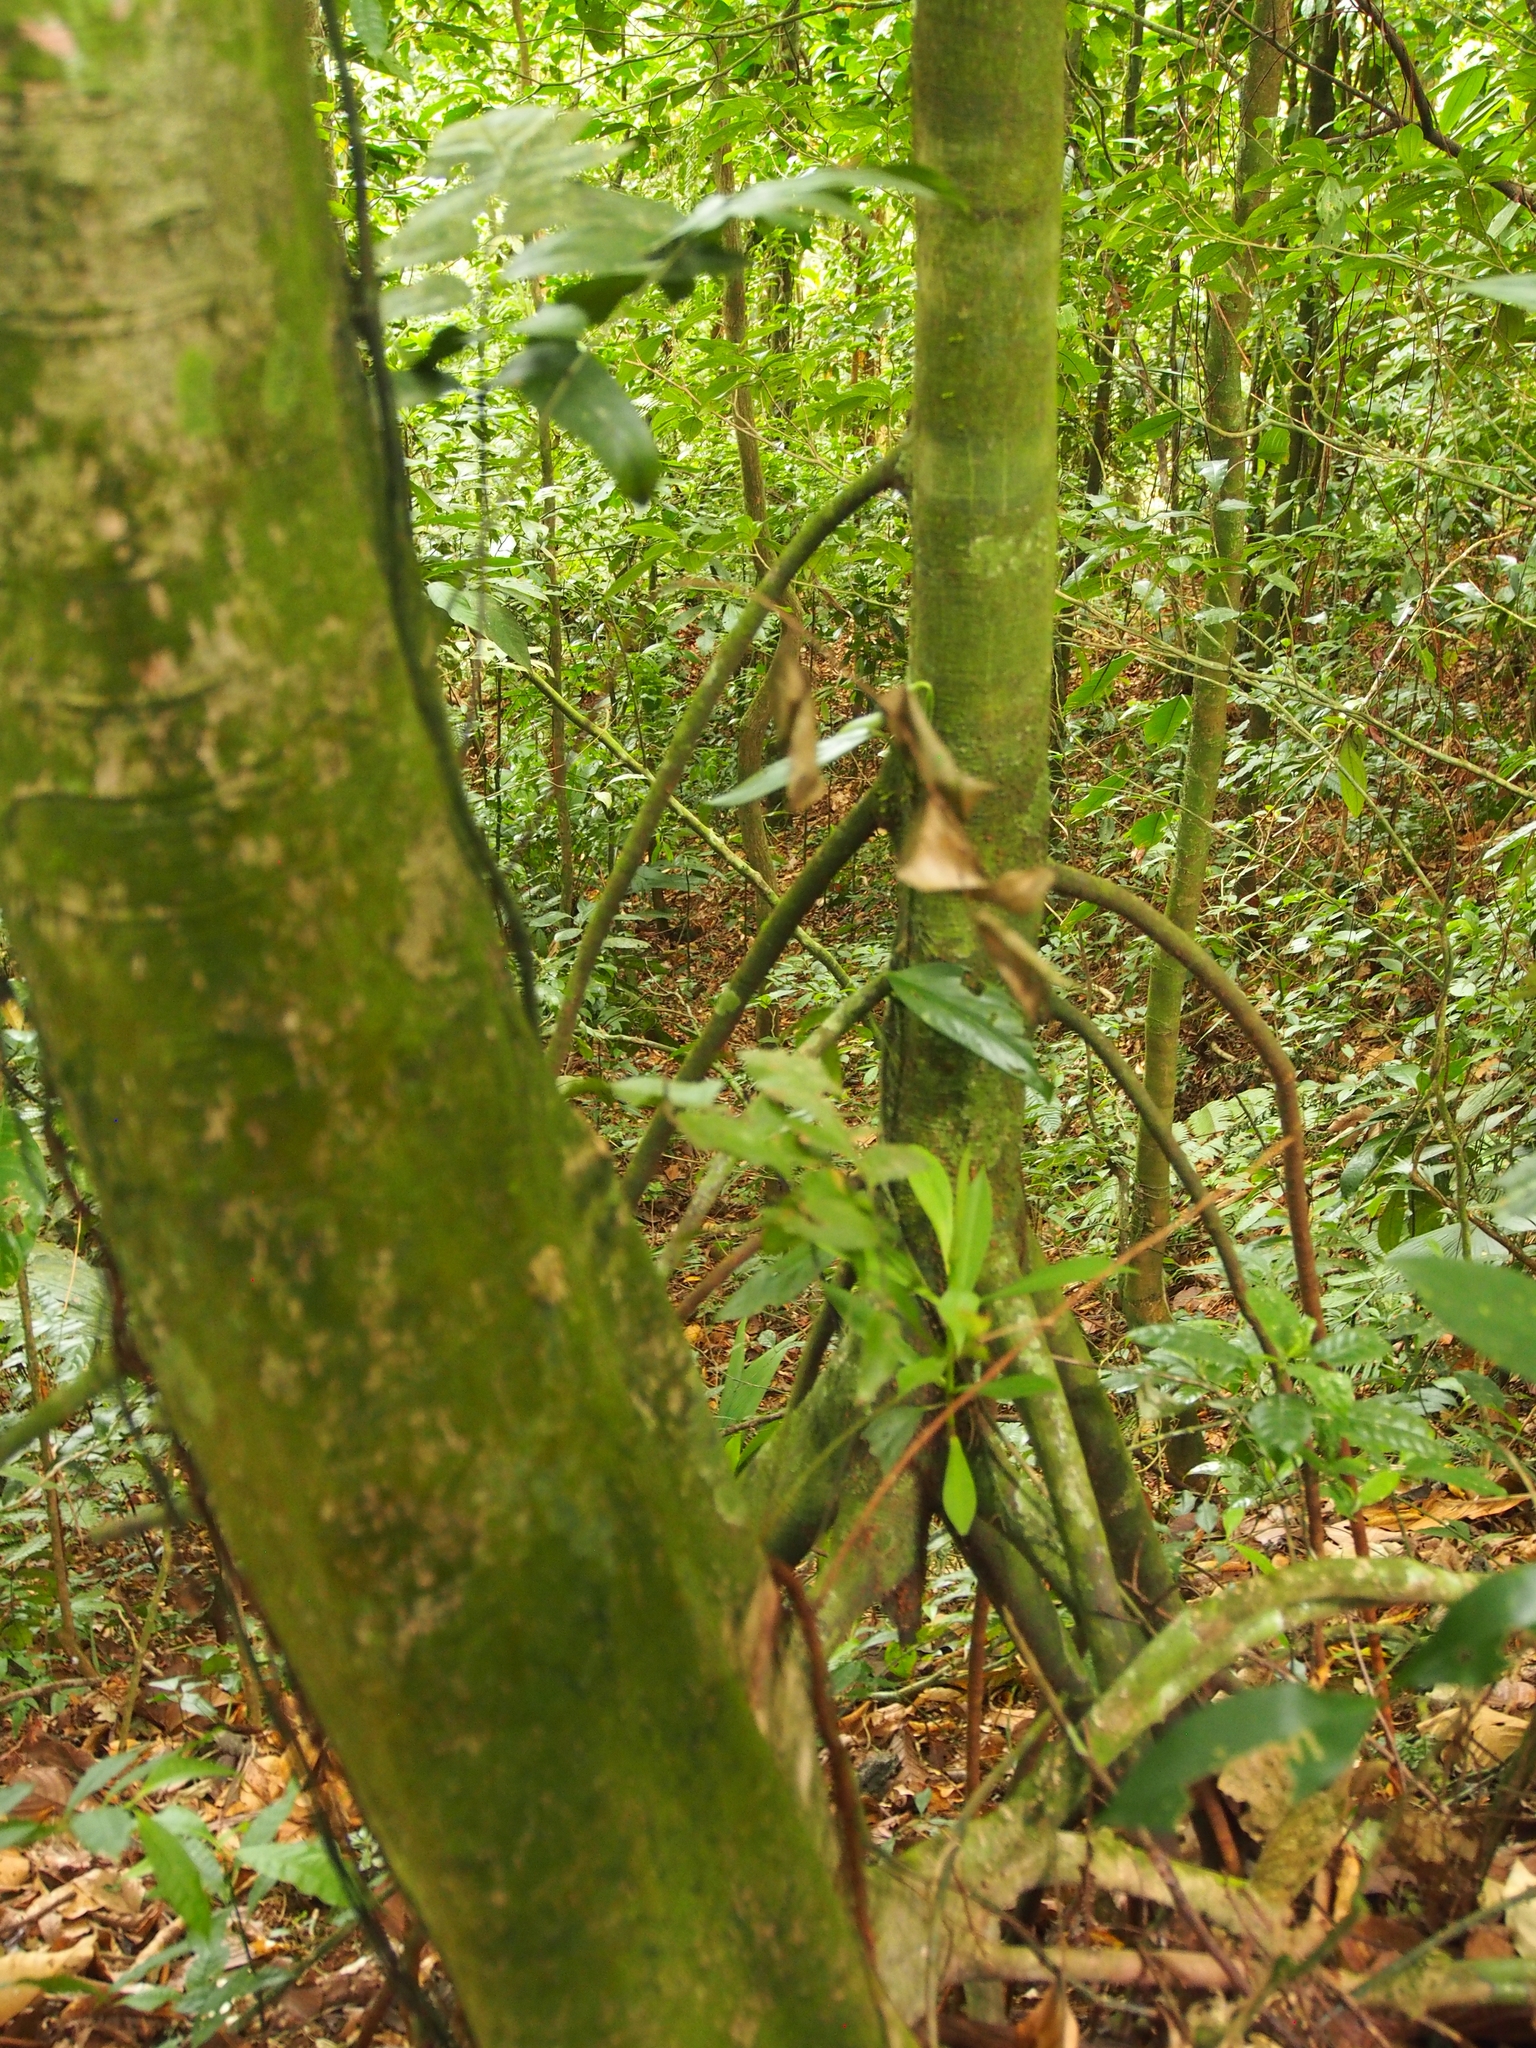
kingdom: Plantae
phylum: Tracheophyta
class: Magnoliopsida
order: Malpighiales
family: Clusiaceae
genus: Arawakia
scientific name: Arawakia weddelliana
